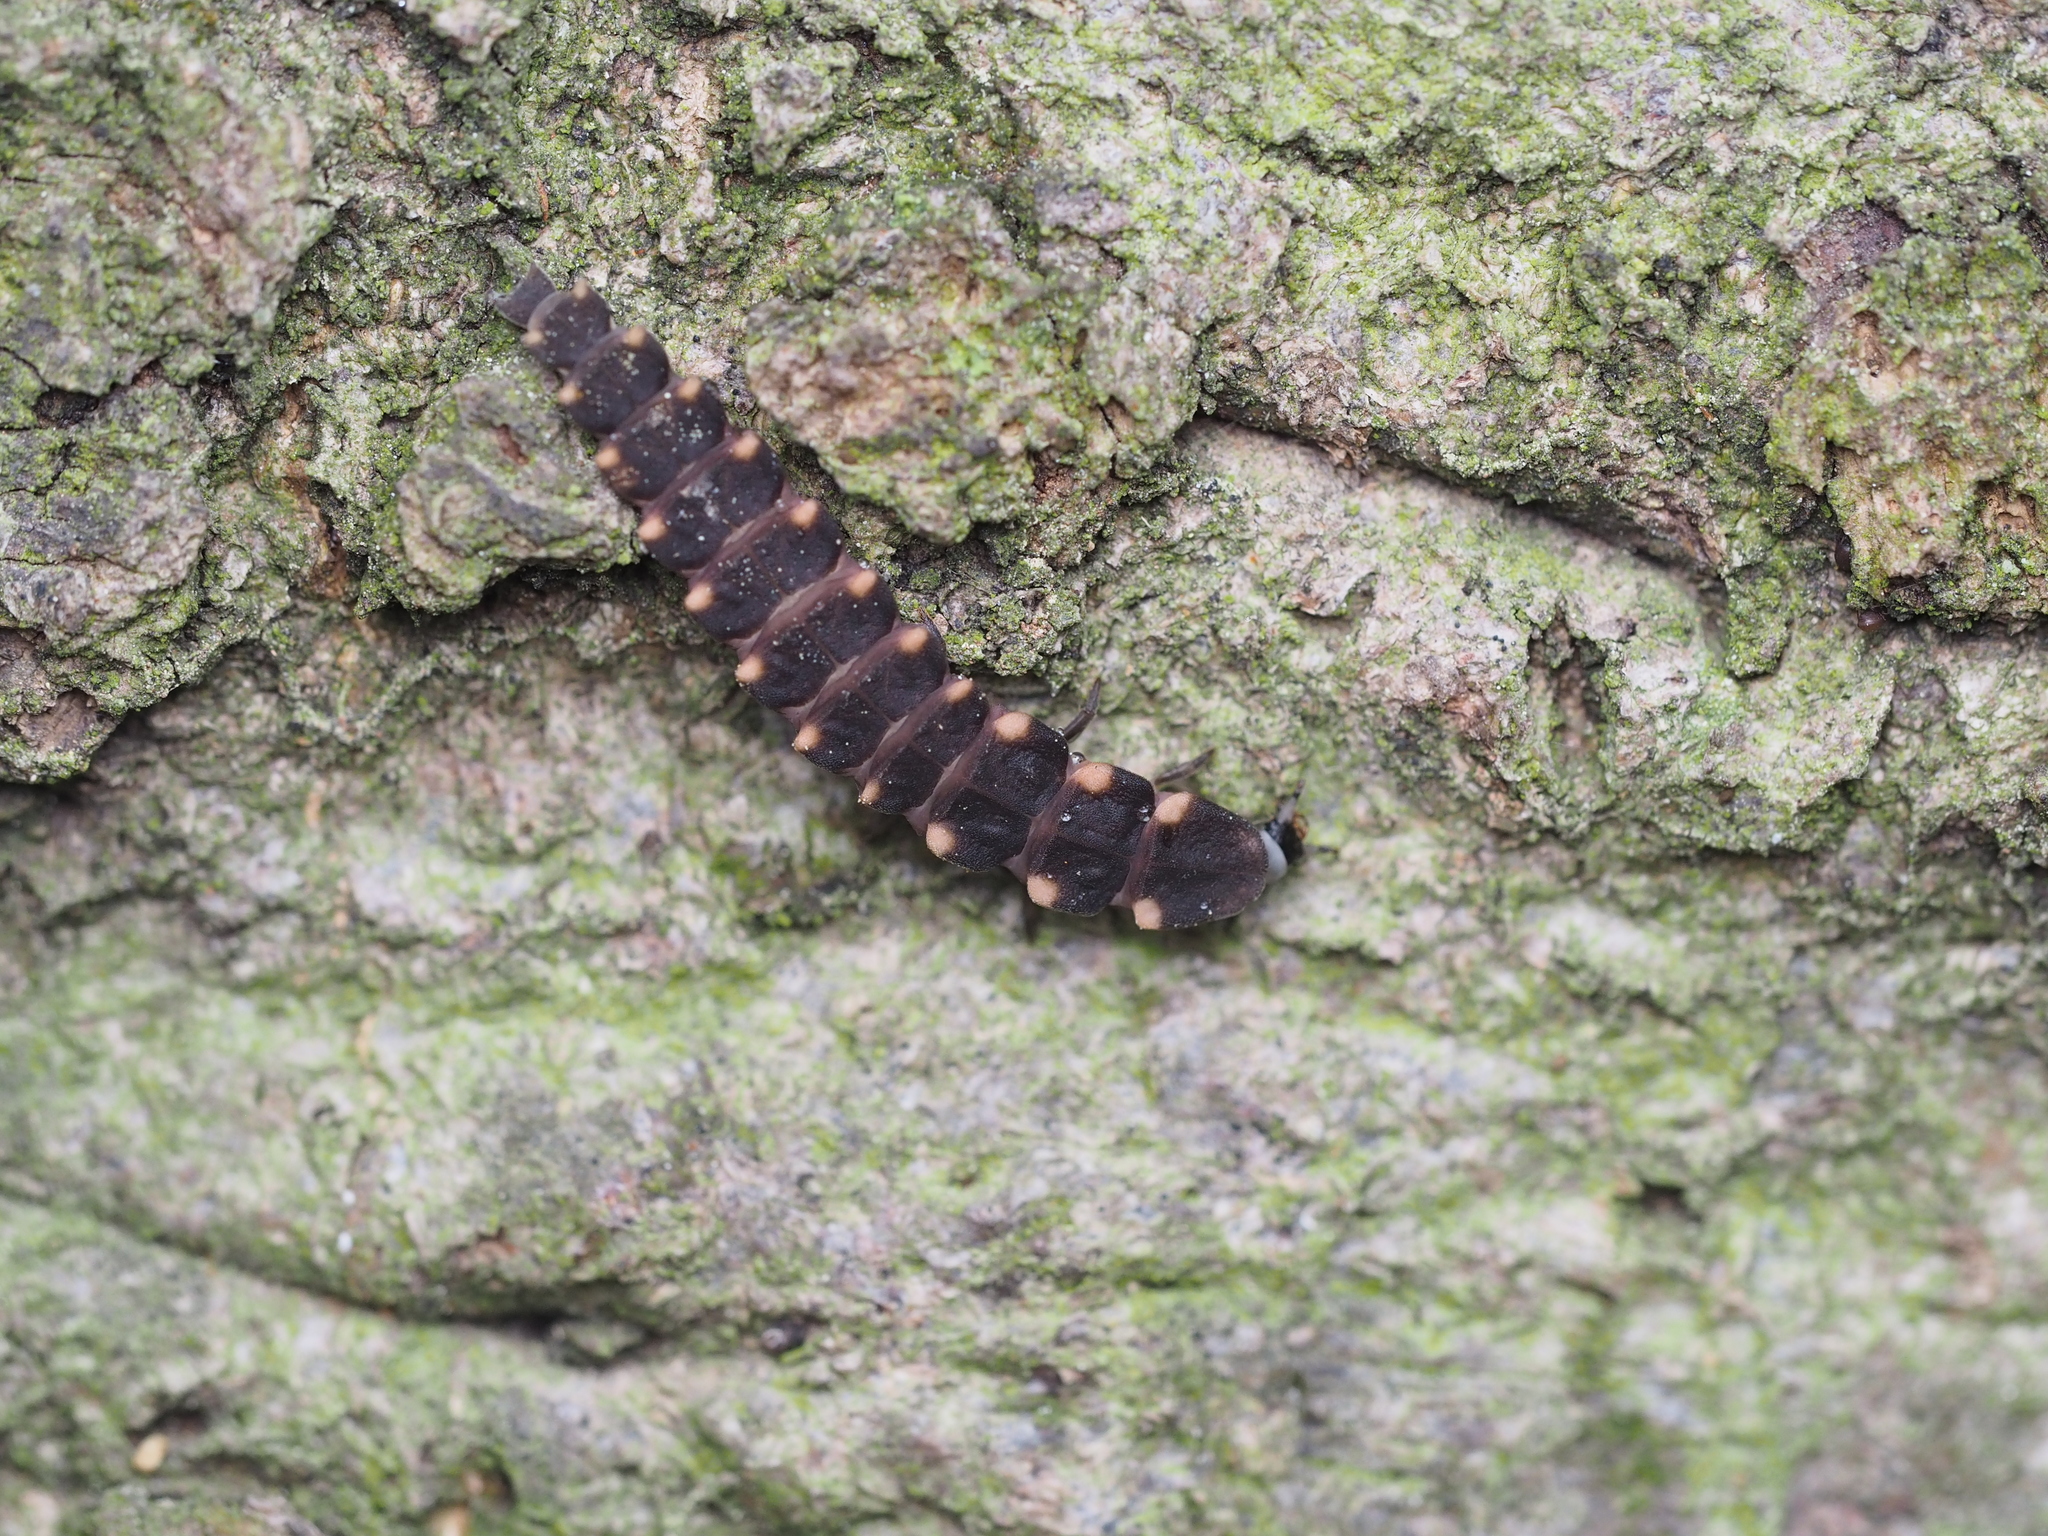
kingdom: Animalia
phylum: Arthropoda
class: Insecta
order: Coleoptera
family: Lampyridae
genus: Lampyris
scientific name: Lampyris noctiluca
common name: Glow-worm
